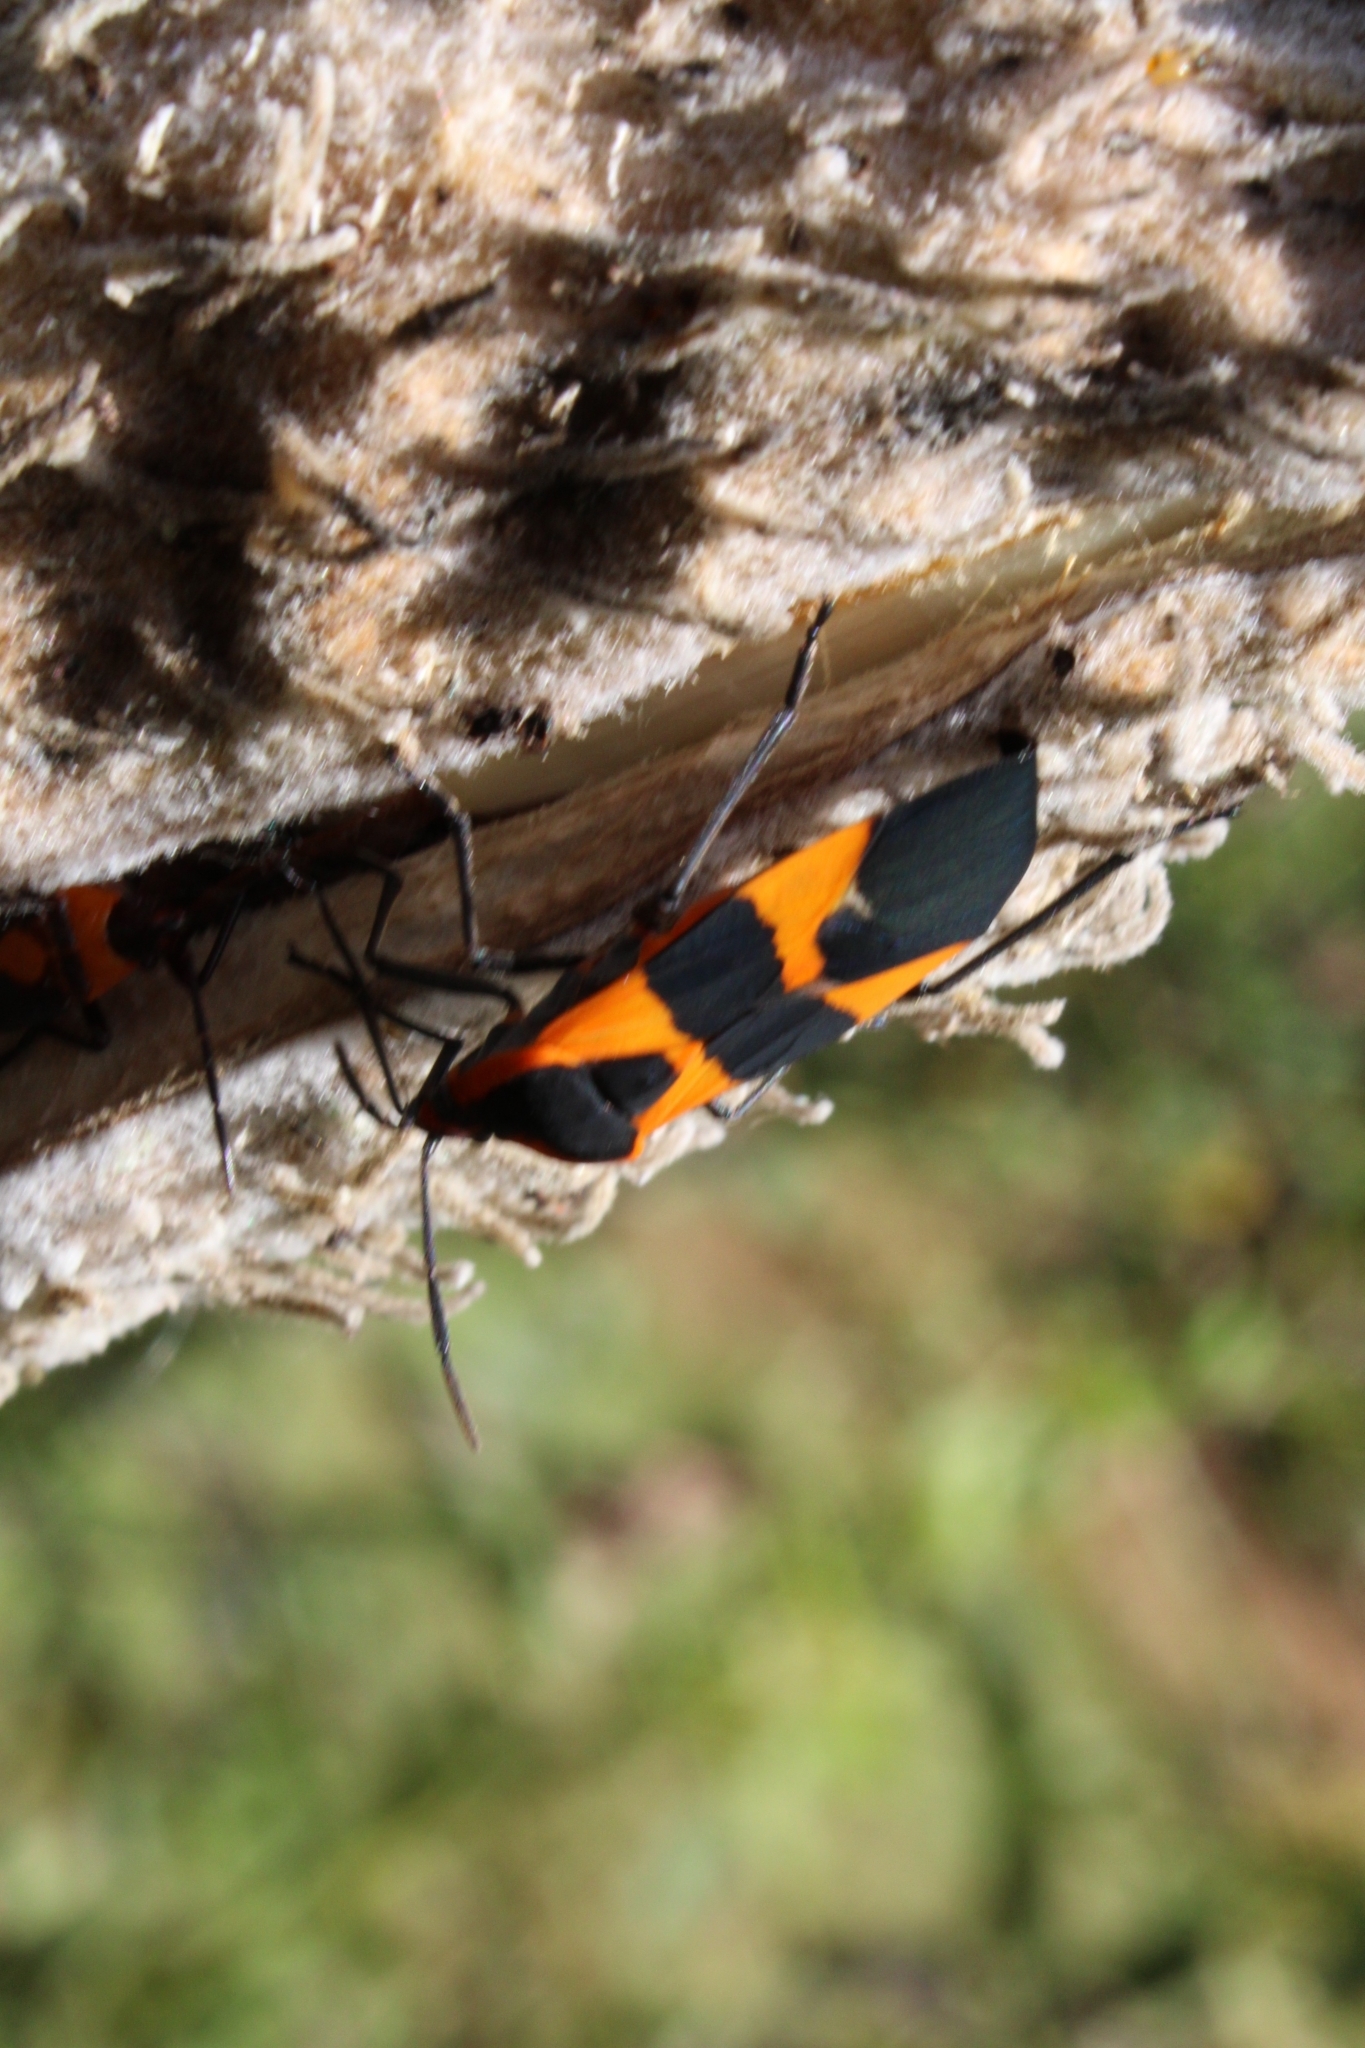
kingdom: Animalia
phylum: Arthropoda
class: Insecta
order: Hemiptera
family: Lygaeidae
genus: Oncopeltus
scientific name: Oncopeltus fasciatus
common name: Large milkweed bug
